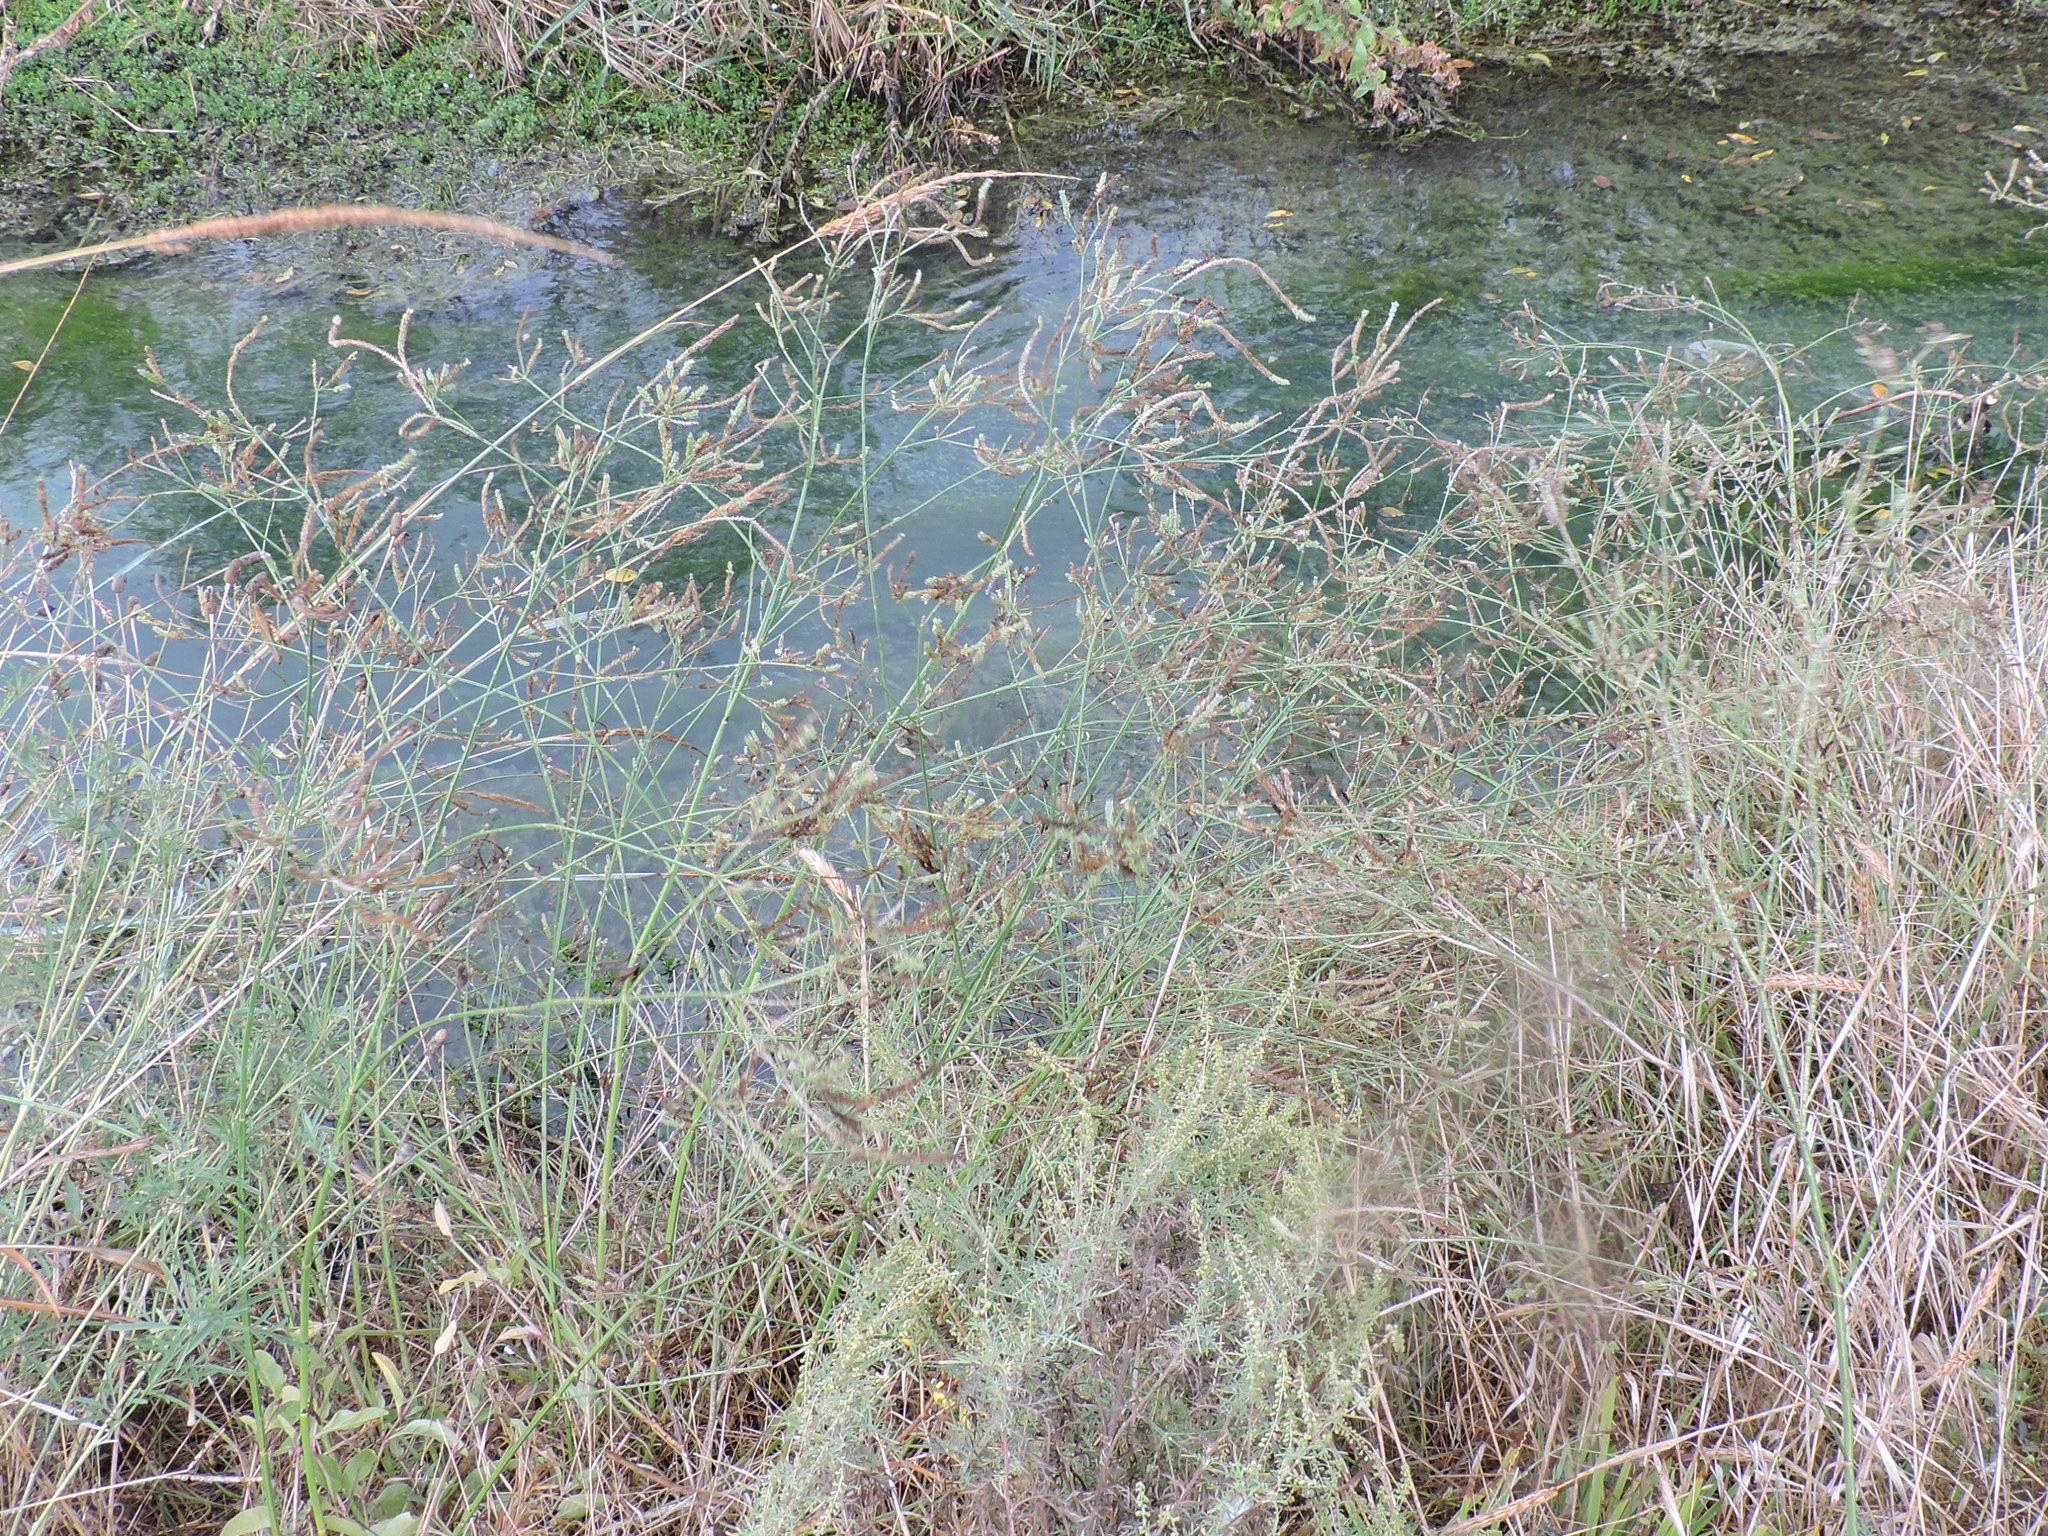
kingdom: Plantae
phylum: Tracheophyta
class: Magnoliopsida
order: Lamiales
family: Verbenaceae
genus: Verbena
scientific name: Verbena brasiliensis
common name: Brazilian vervain
